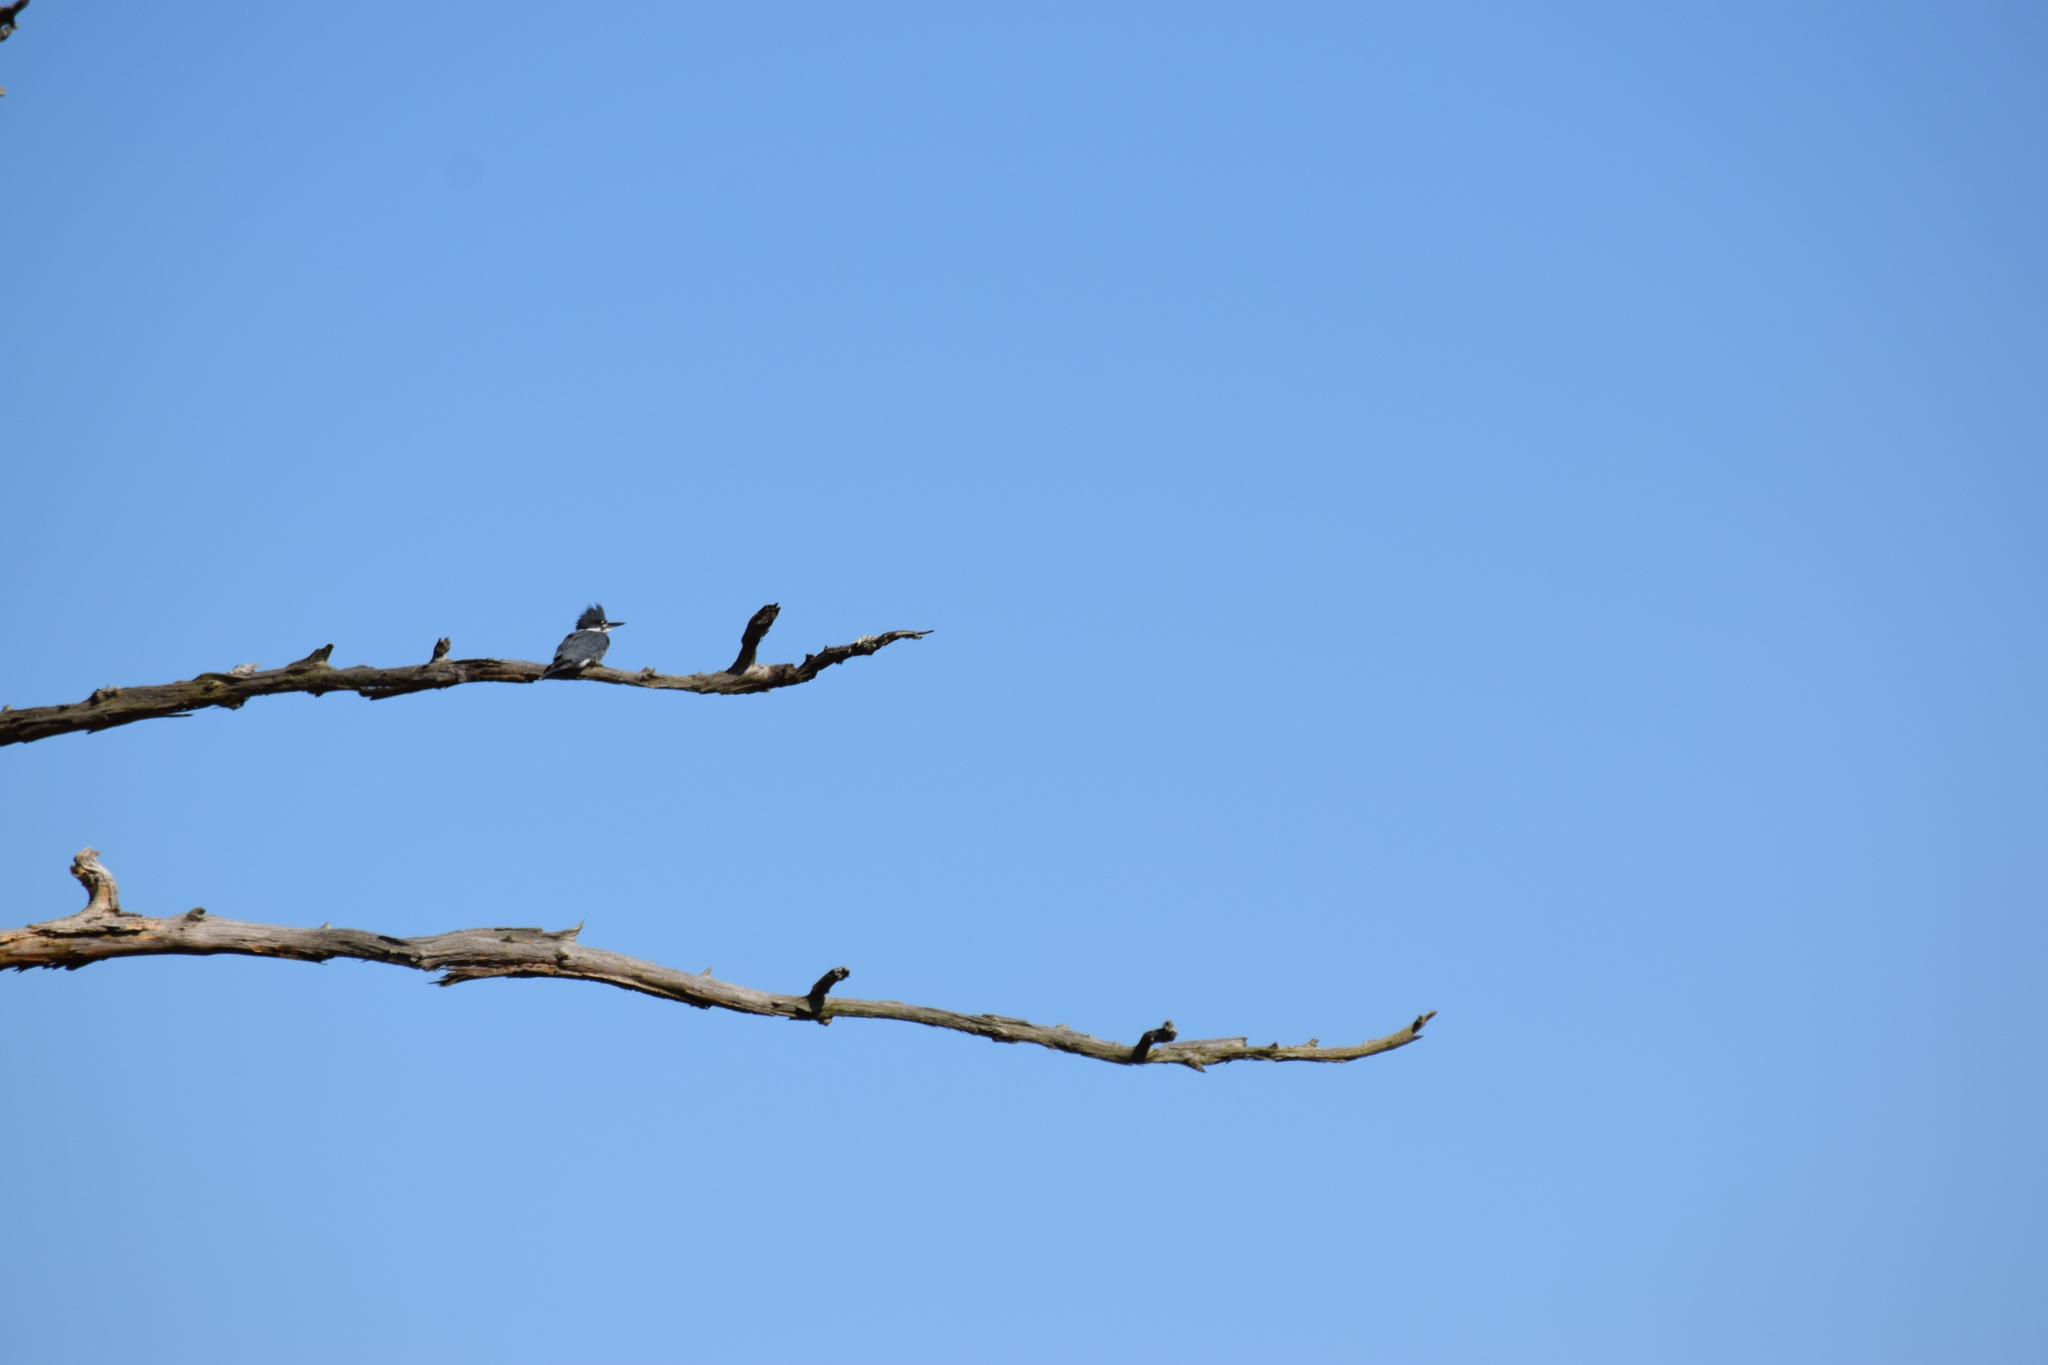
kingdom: Animalia
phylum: Chordata
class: Aves
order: Coraciiformes
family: Alcedinidae
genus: Megaceryle
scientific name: Megaceryle alcyon
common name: Belted kingfisher
